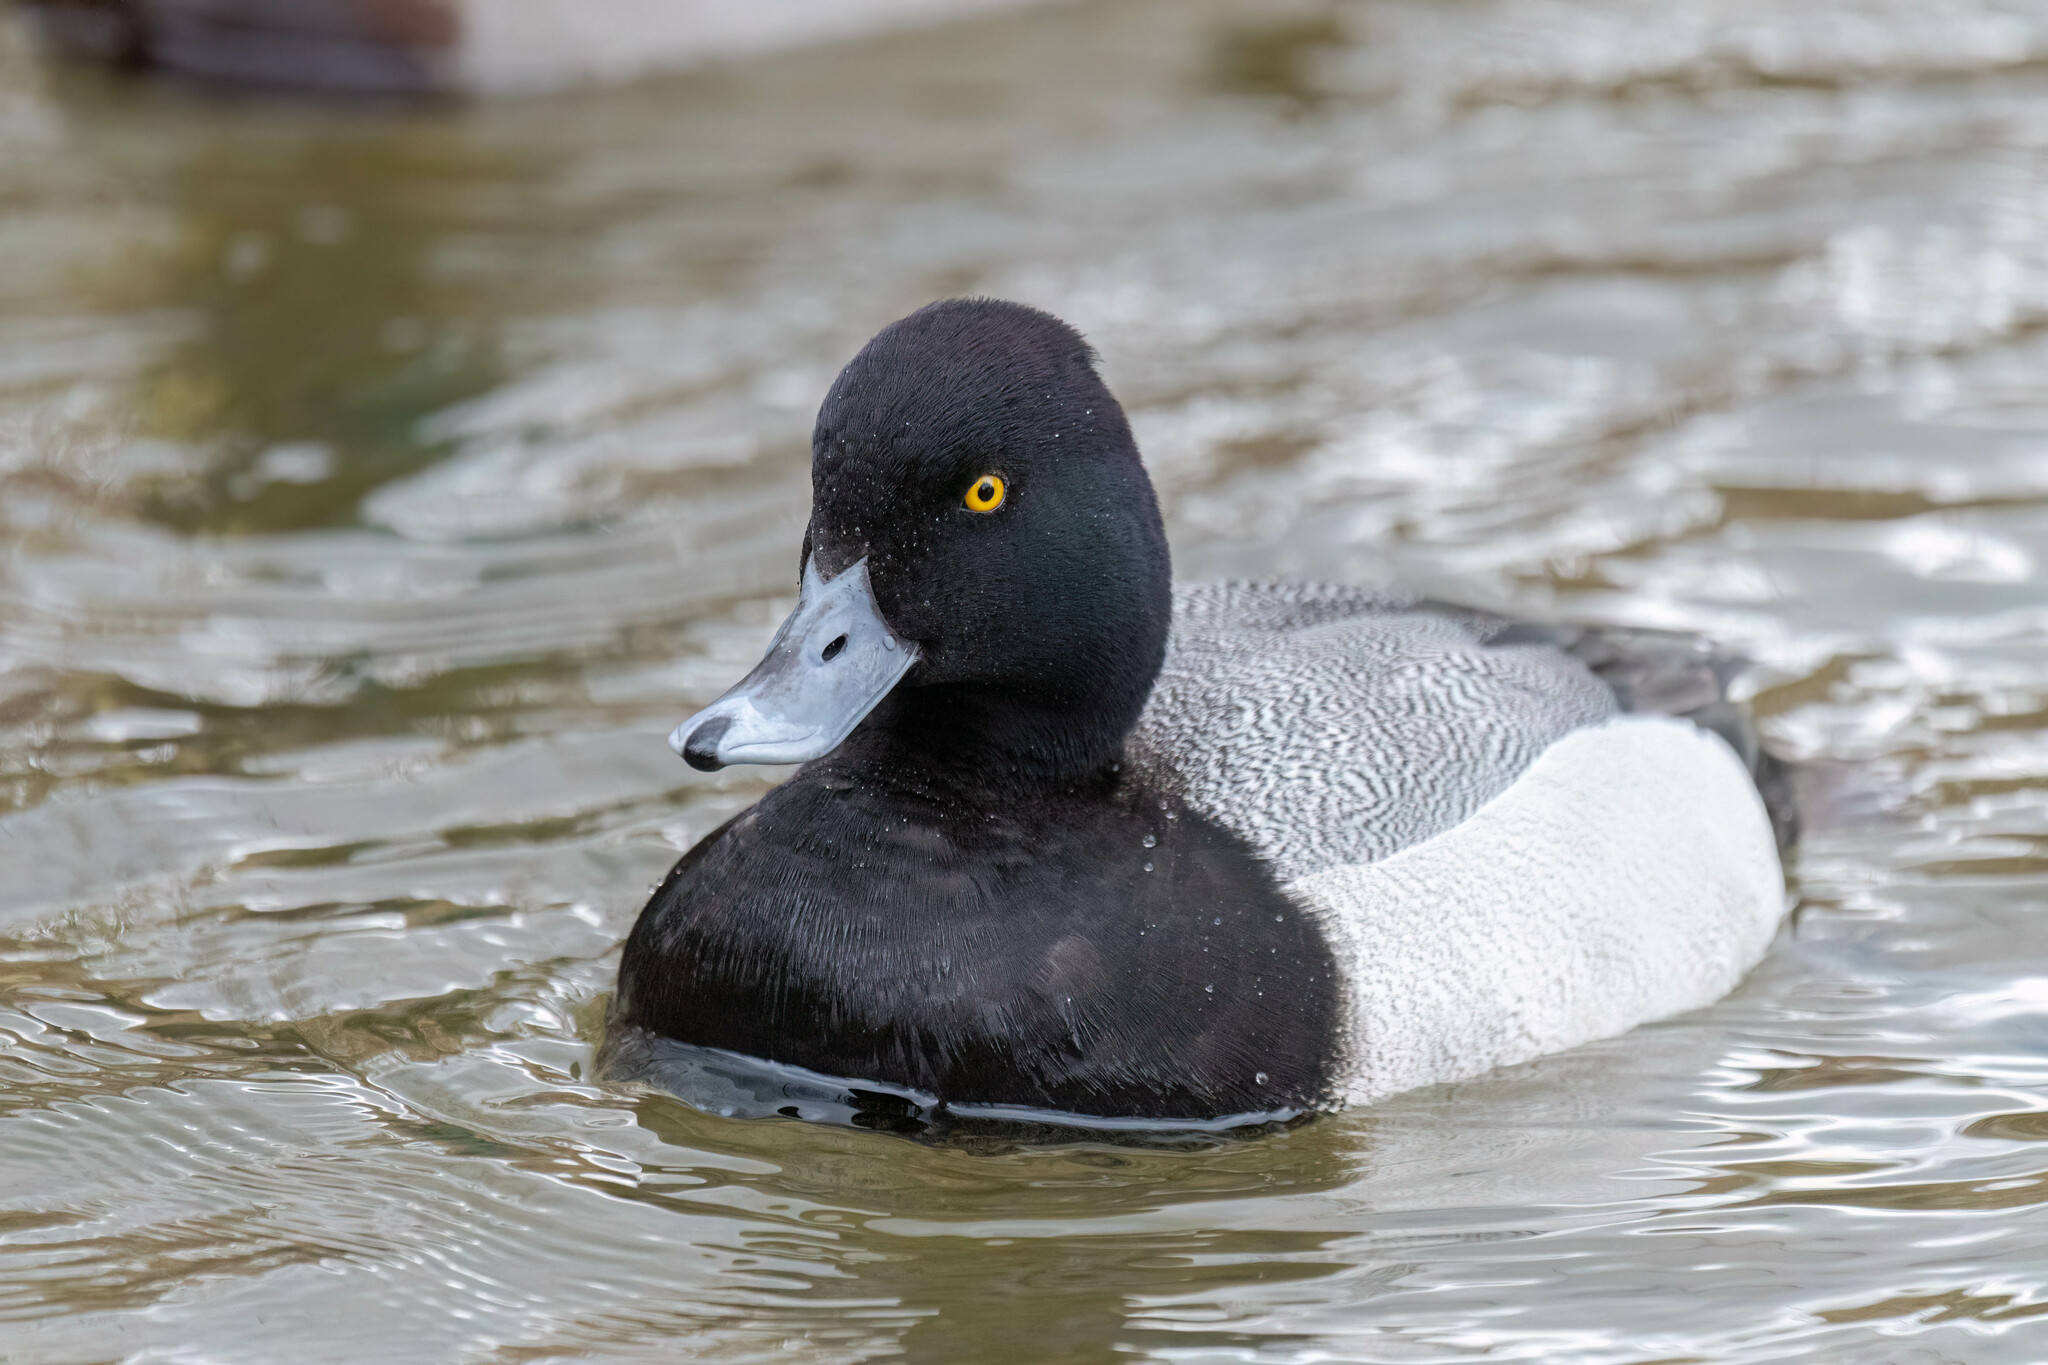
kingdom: Animalia
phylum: Chordata
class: Aves
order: Anseriformes
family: Anatidae
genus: Aythya
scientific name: Aythya affinis
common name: Lesser scaup
